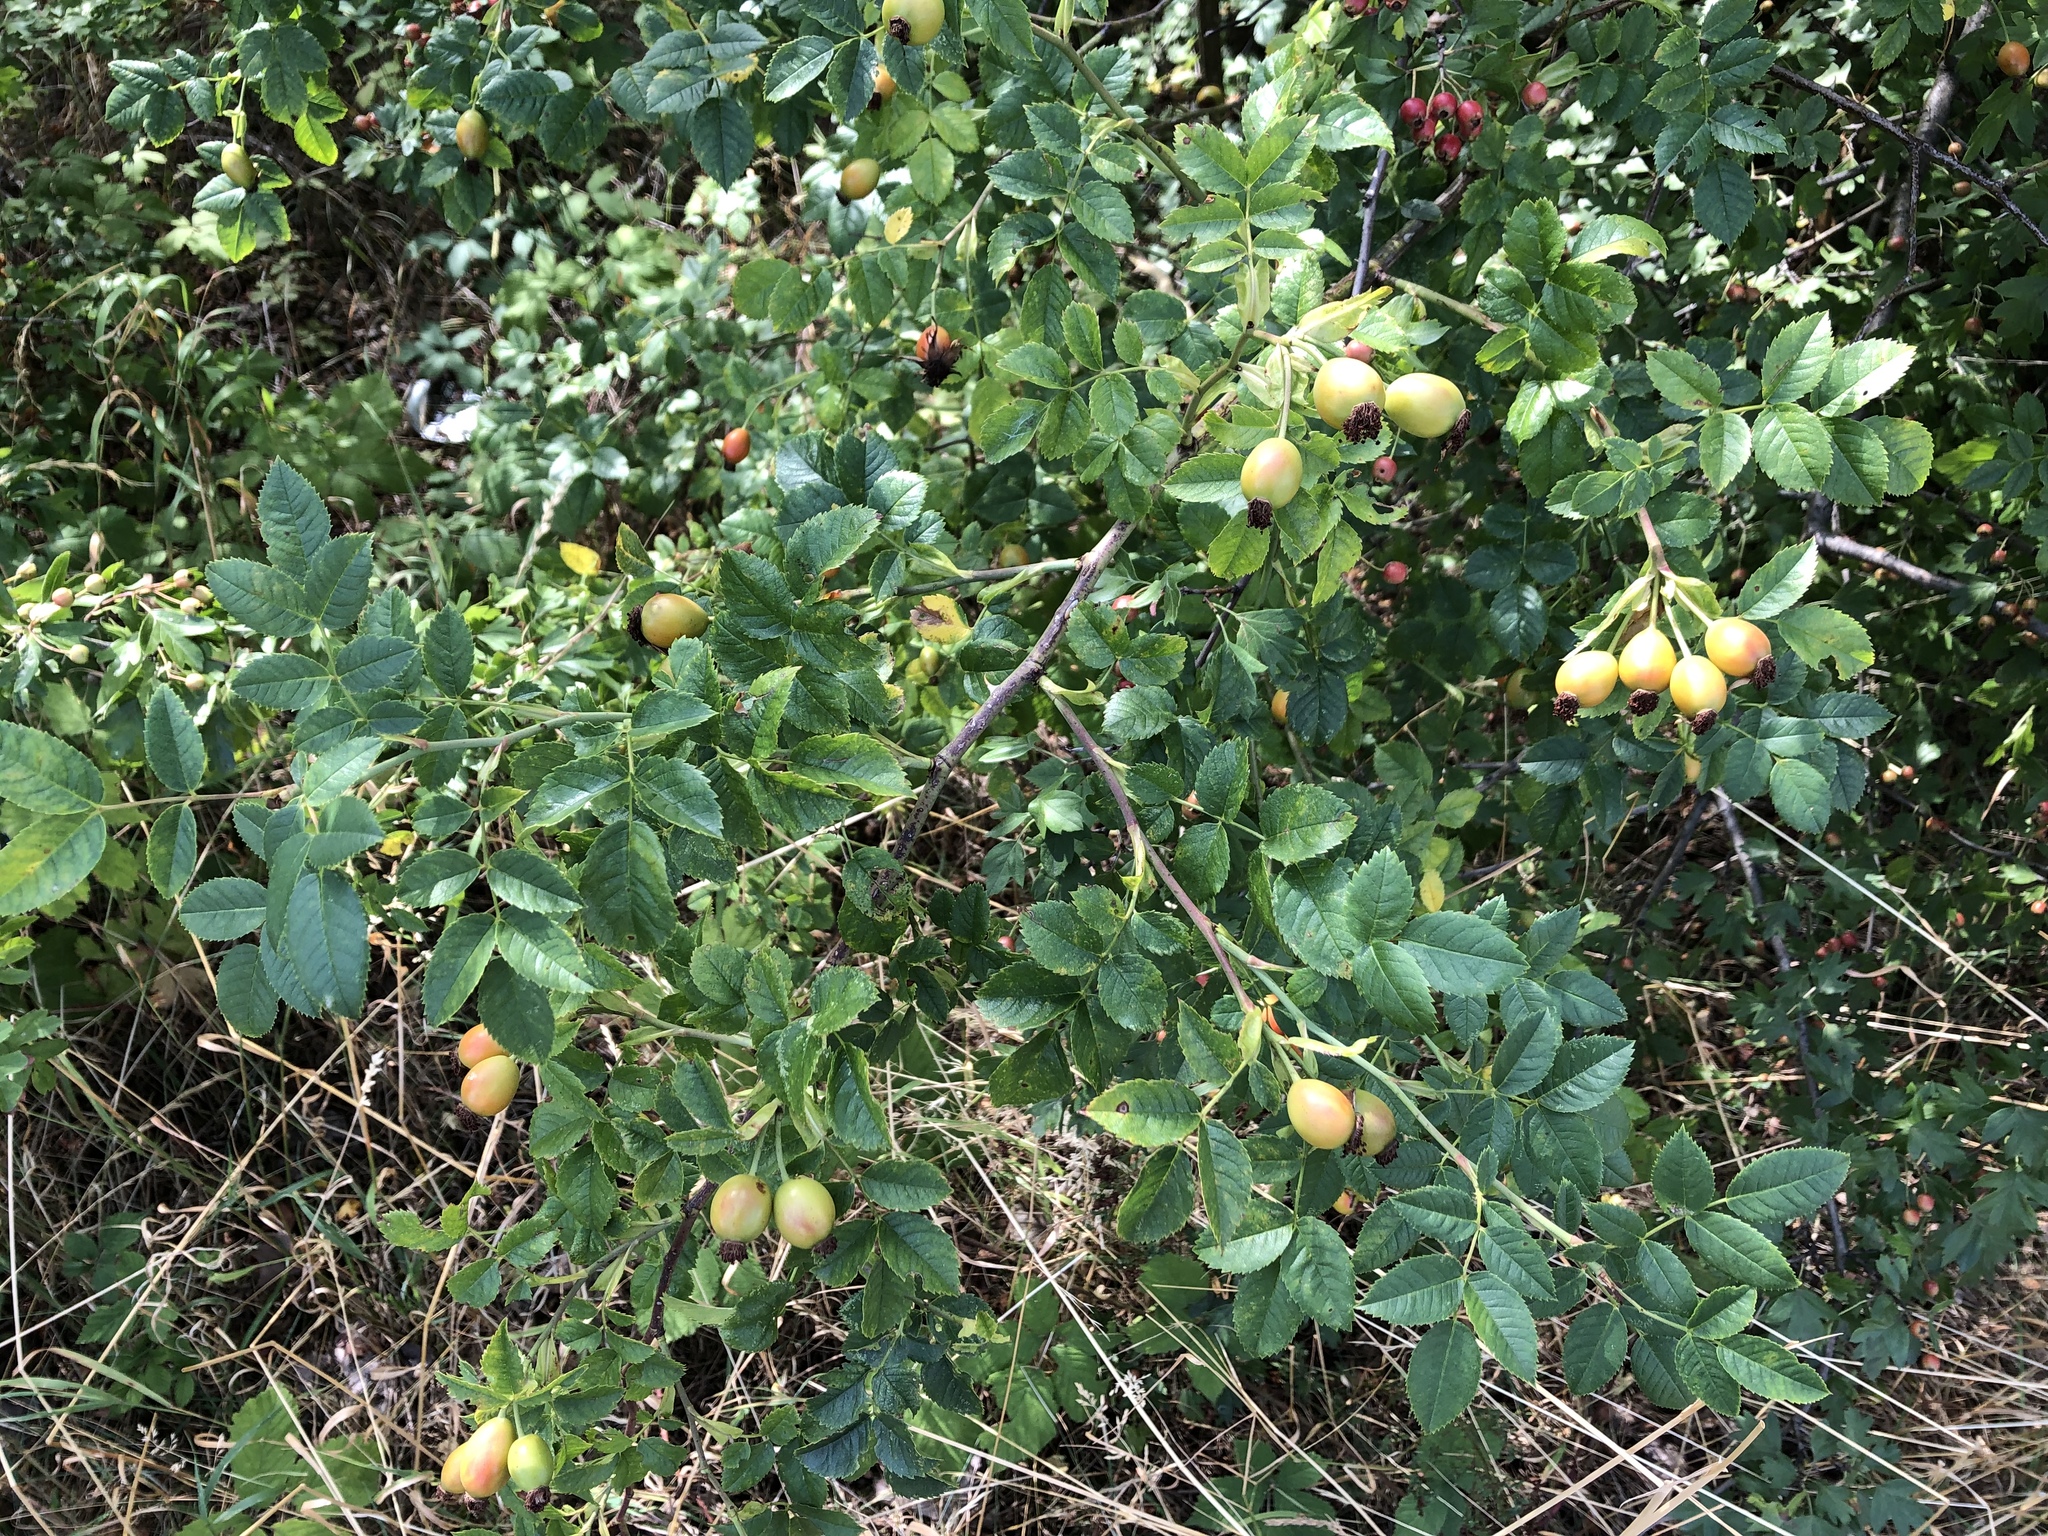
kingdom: Plantae
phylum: Tracheophyta
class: Magnoliopsida
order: Rosales
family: Rosaceae
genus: Rosa
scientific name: Rosa canina
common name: Dog rose
